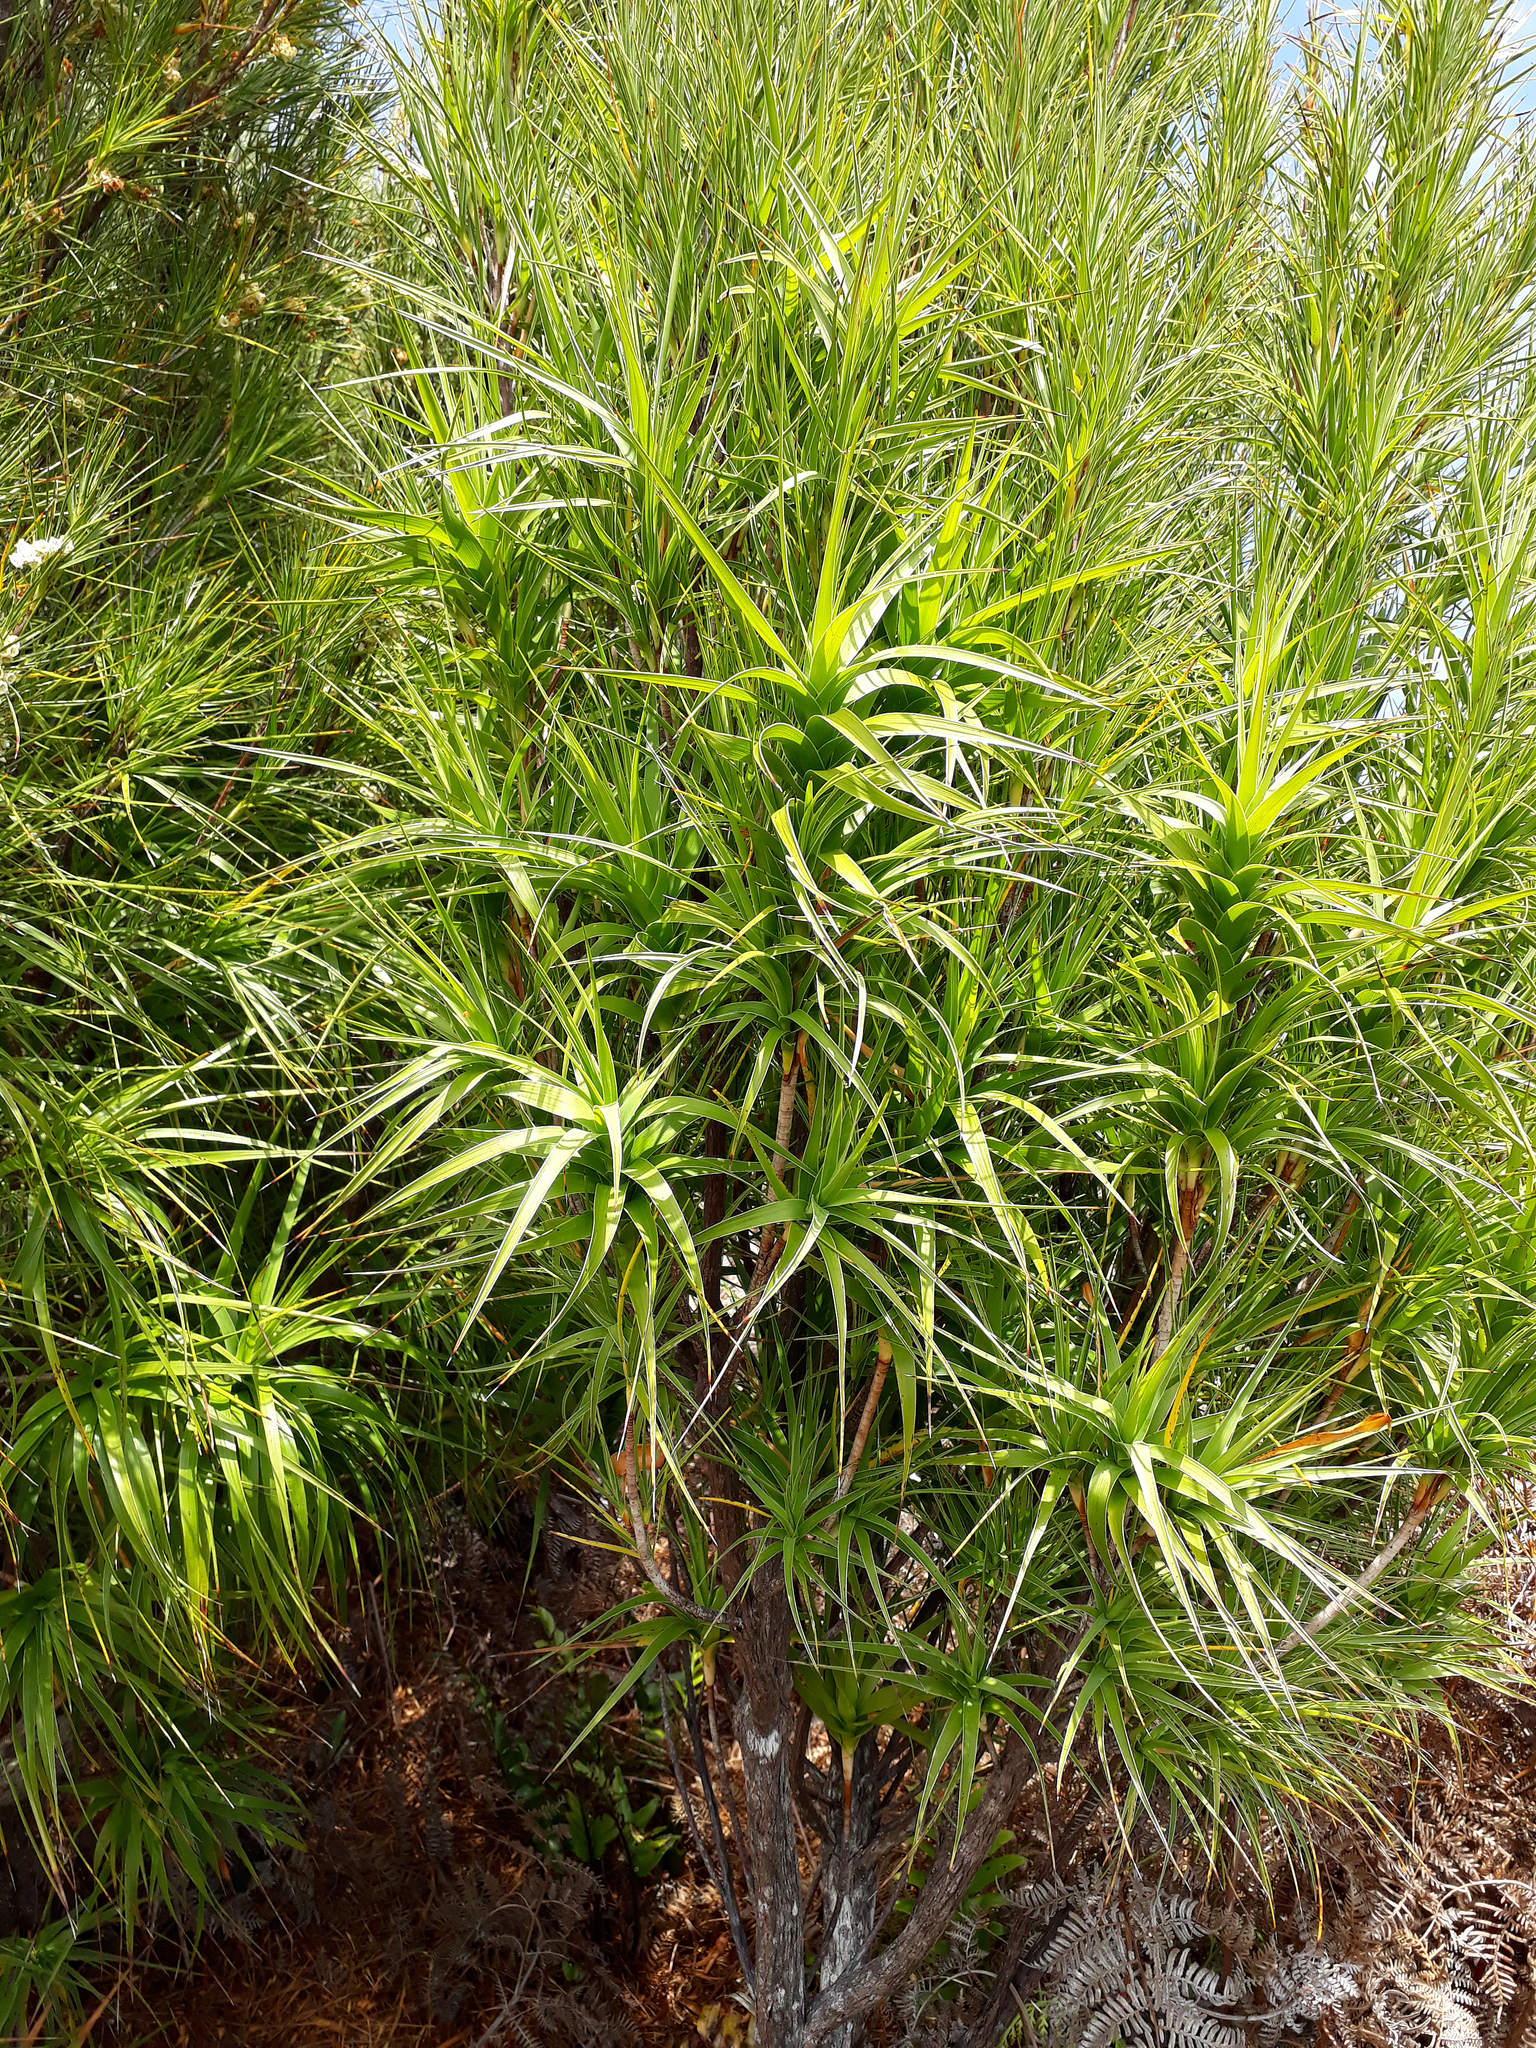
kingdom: Plantae
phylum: Tracheophyta
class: Magnoliopsida
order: Ericales
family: Ericaceae
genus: Dracophyllum
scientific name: Dracophyllum arboreum
